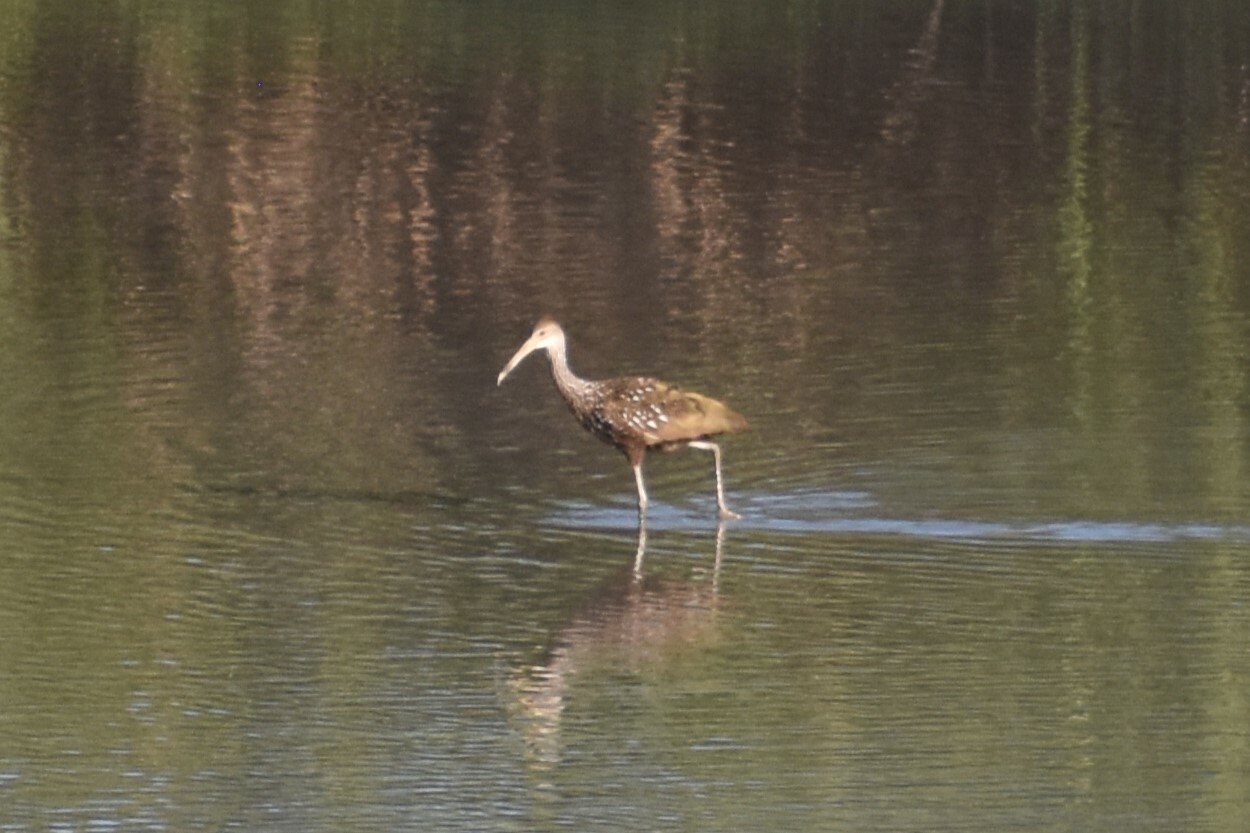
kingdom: Animalia
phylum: Chordata
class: Aves
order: Gruiformes
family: Aramidae
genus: Aramus
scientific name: Aramus guarauna
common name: Limpkin
